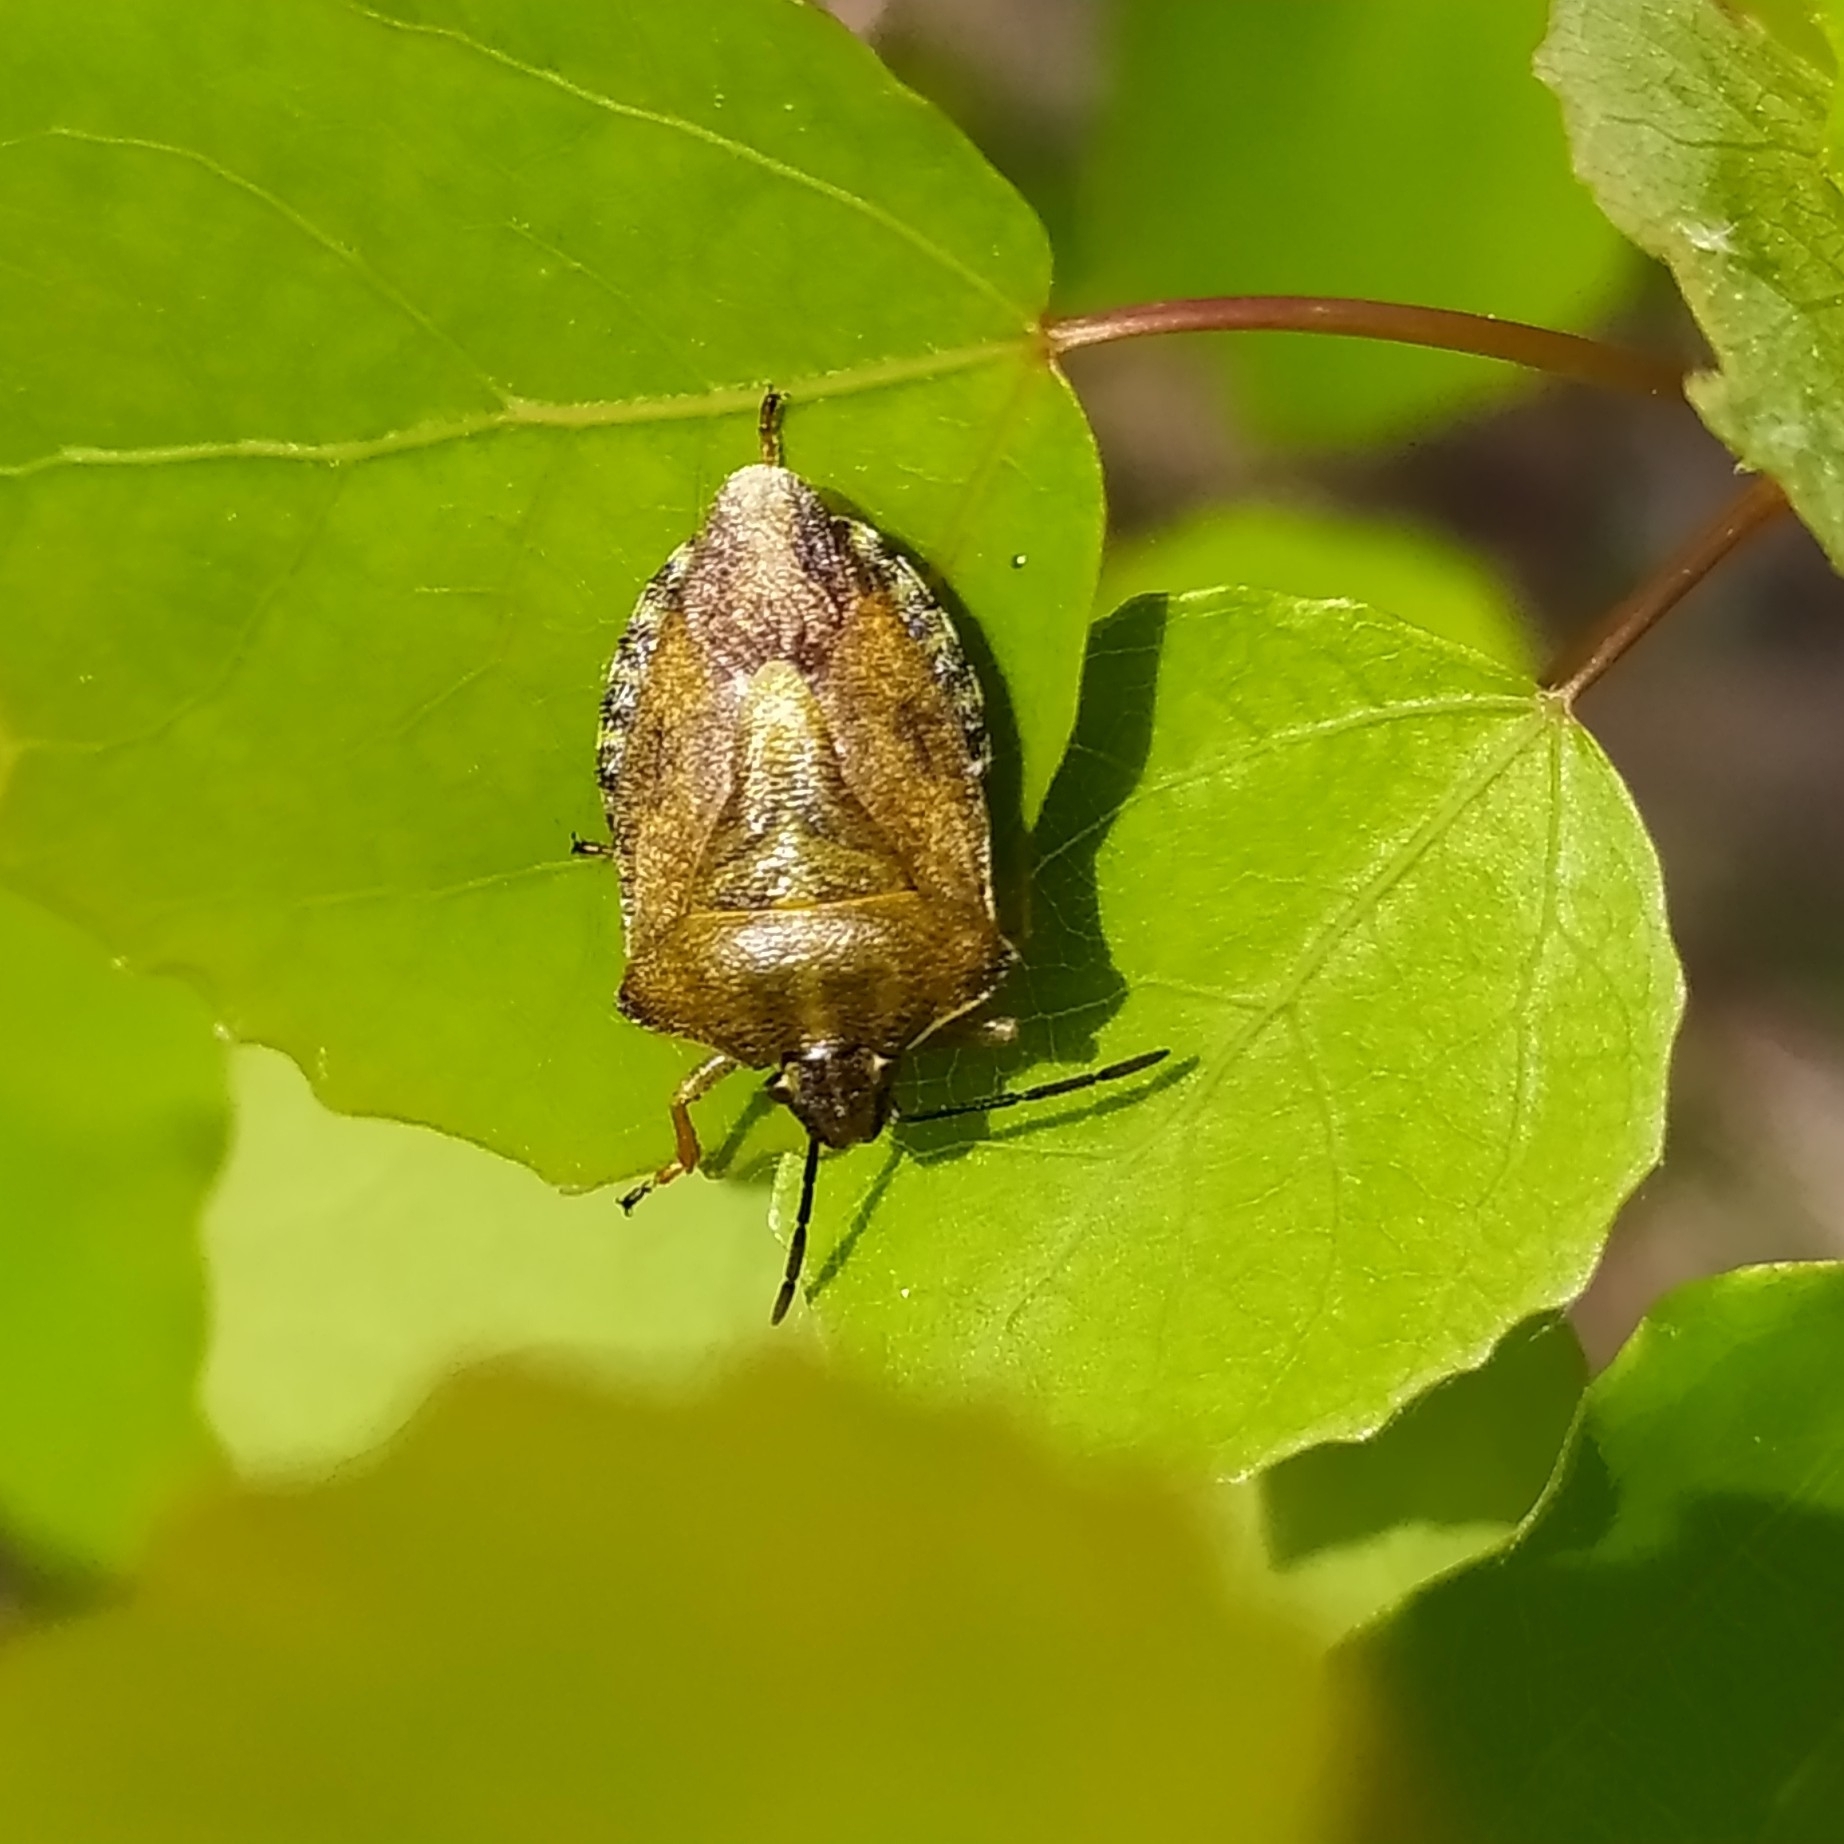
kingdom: Animalia
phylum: Arthropoda
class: Insecta
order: Hemiptera
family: Pentatomidae
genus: Carpocoris
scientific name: Carpocoris purpureipennis
